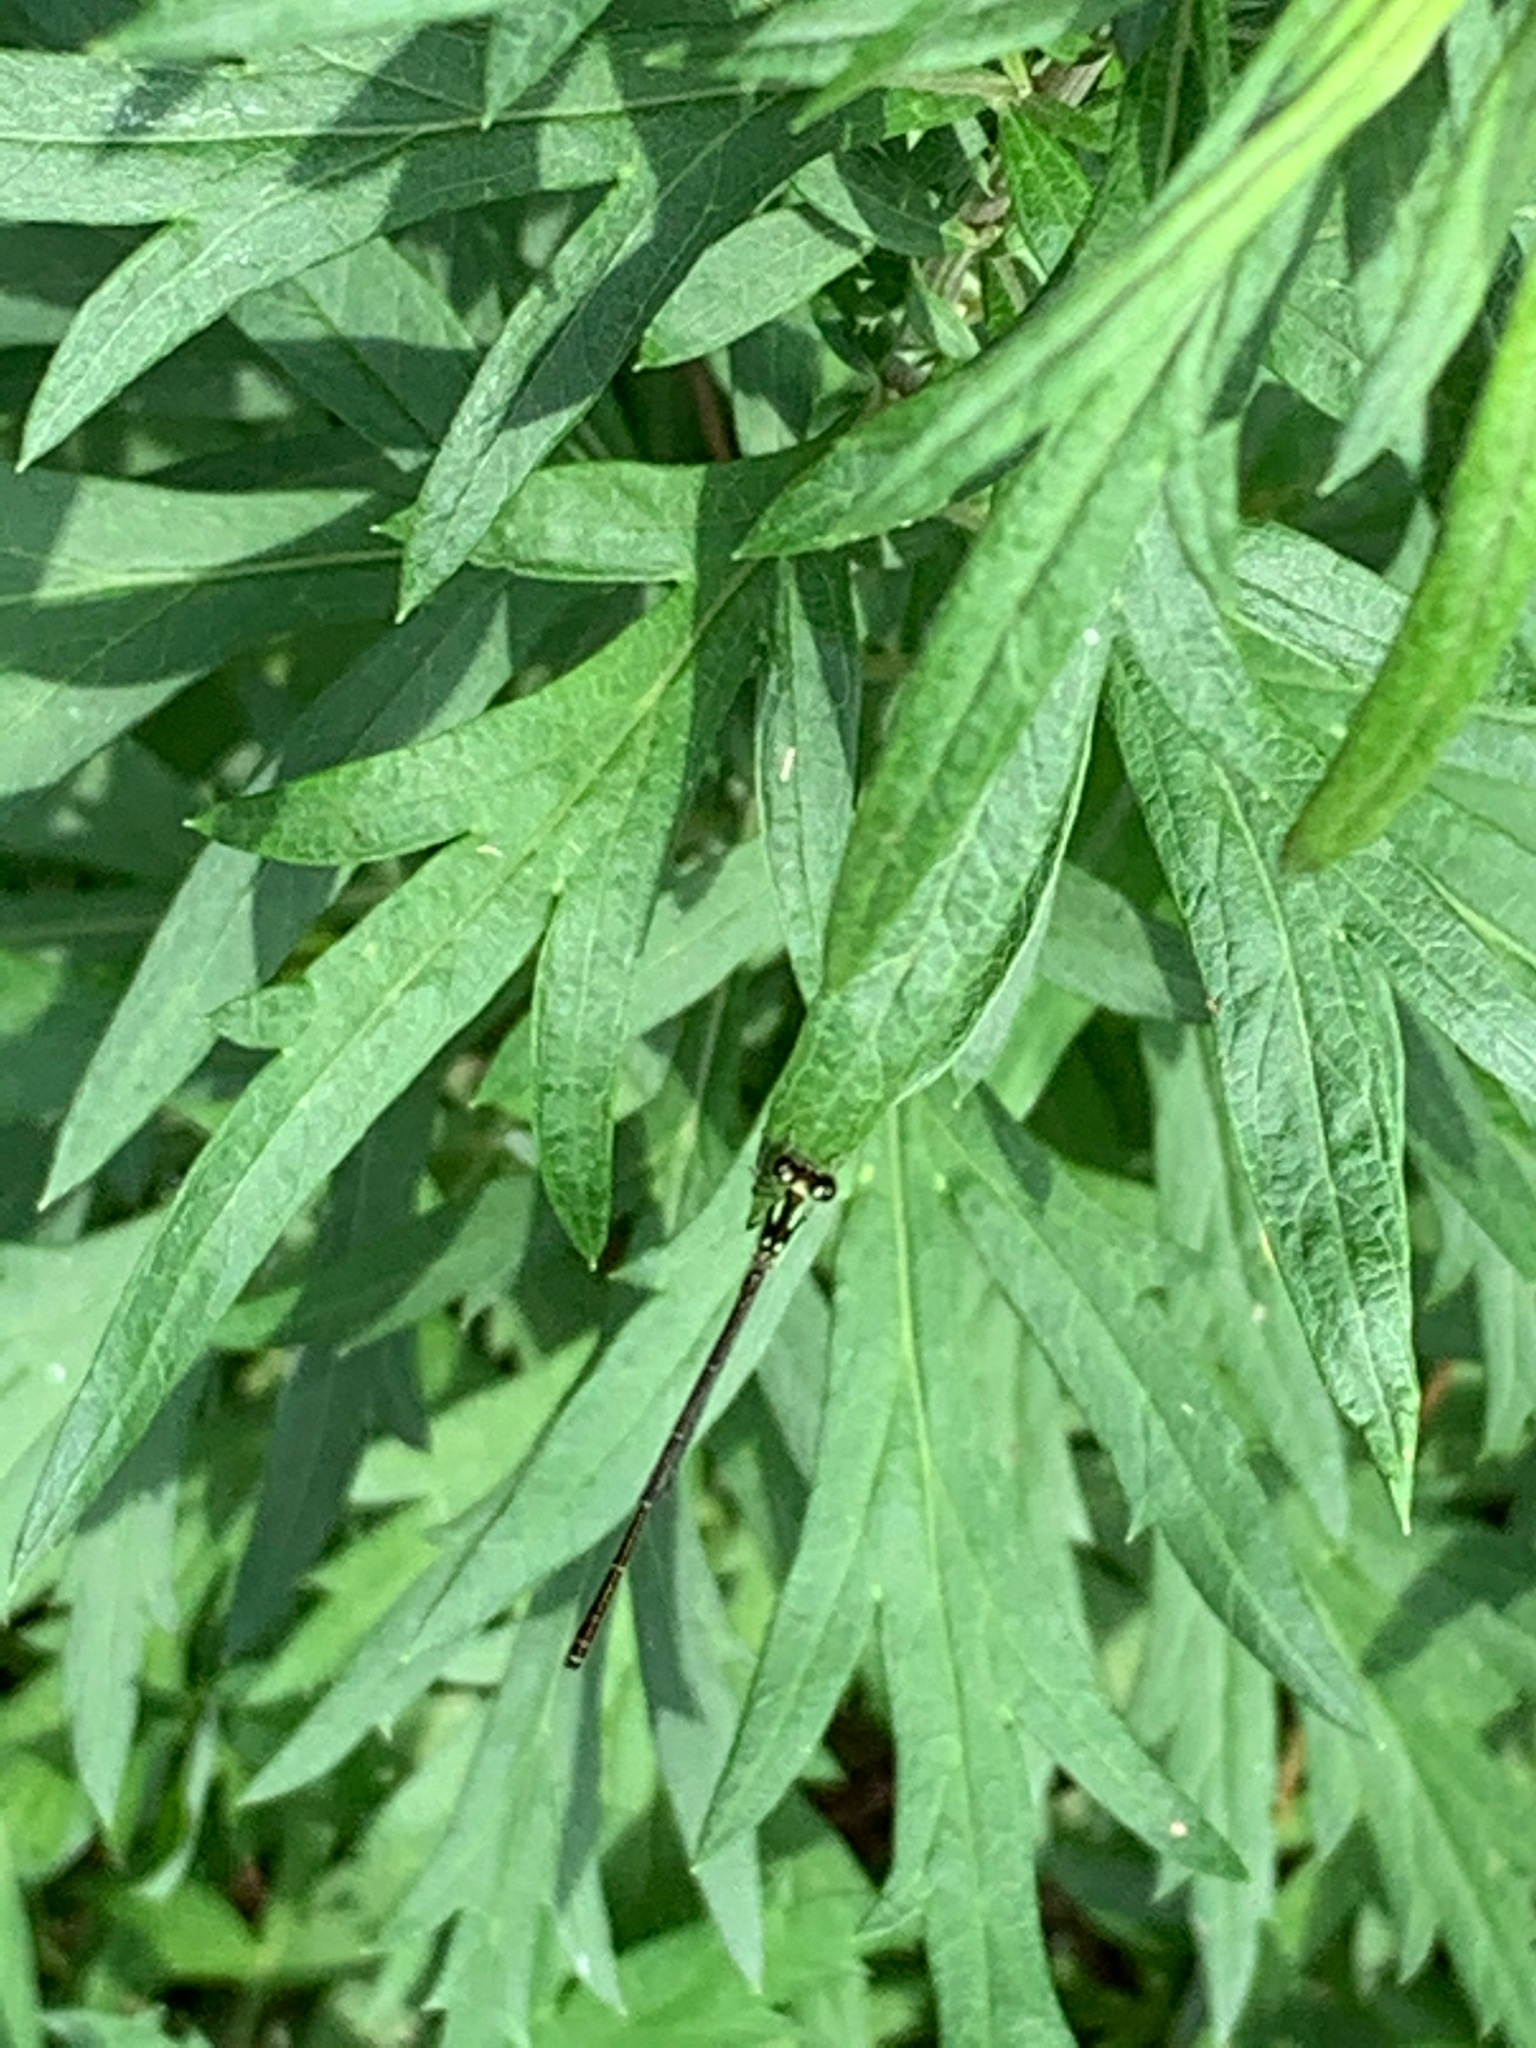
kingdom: Animalia
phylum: Arthropoda
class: Insecta
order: Odonata
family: Coenagrionidae
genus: Ischnura
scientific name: Ischnura posita
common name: Fragile forktail
